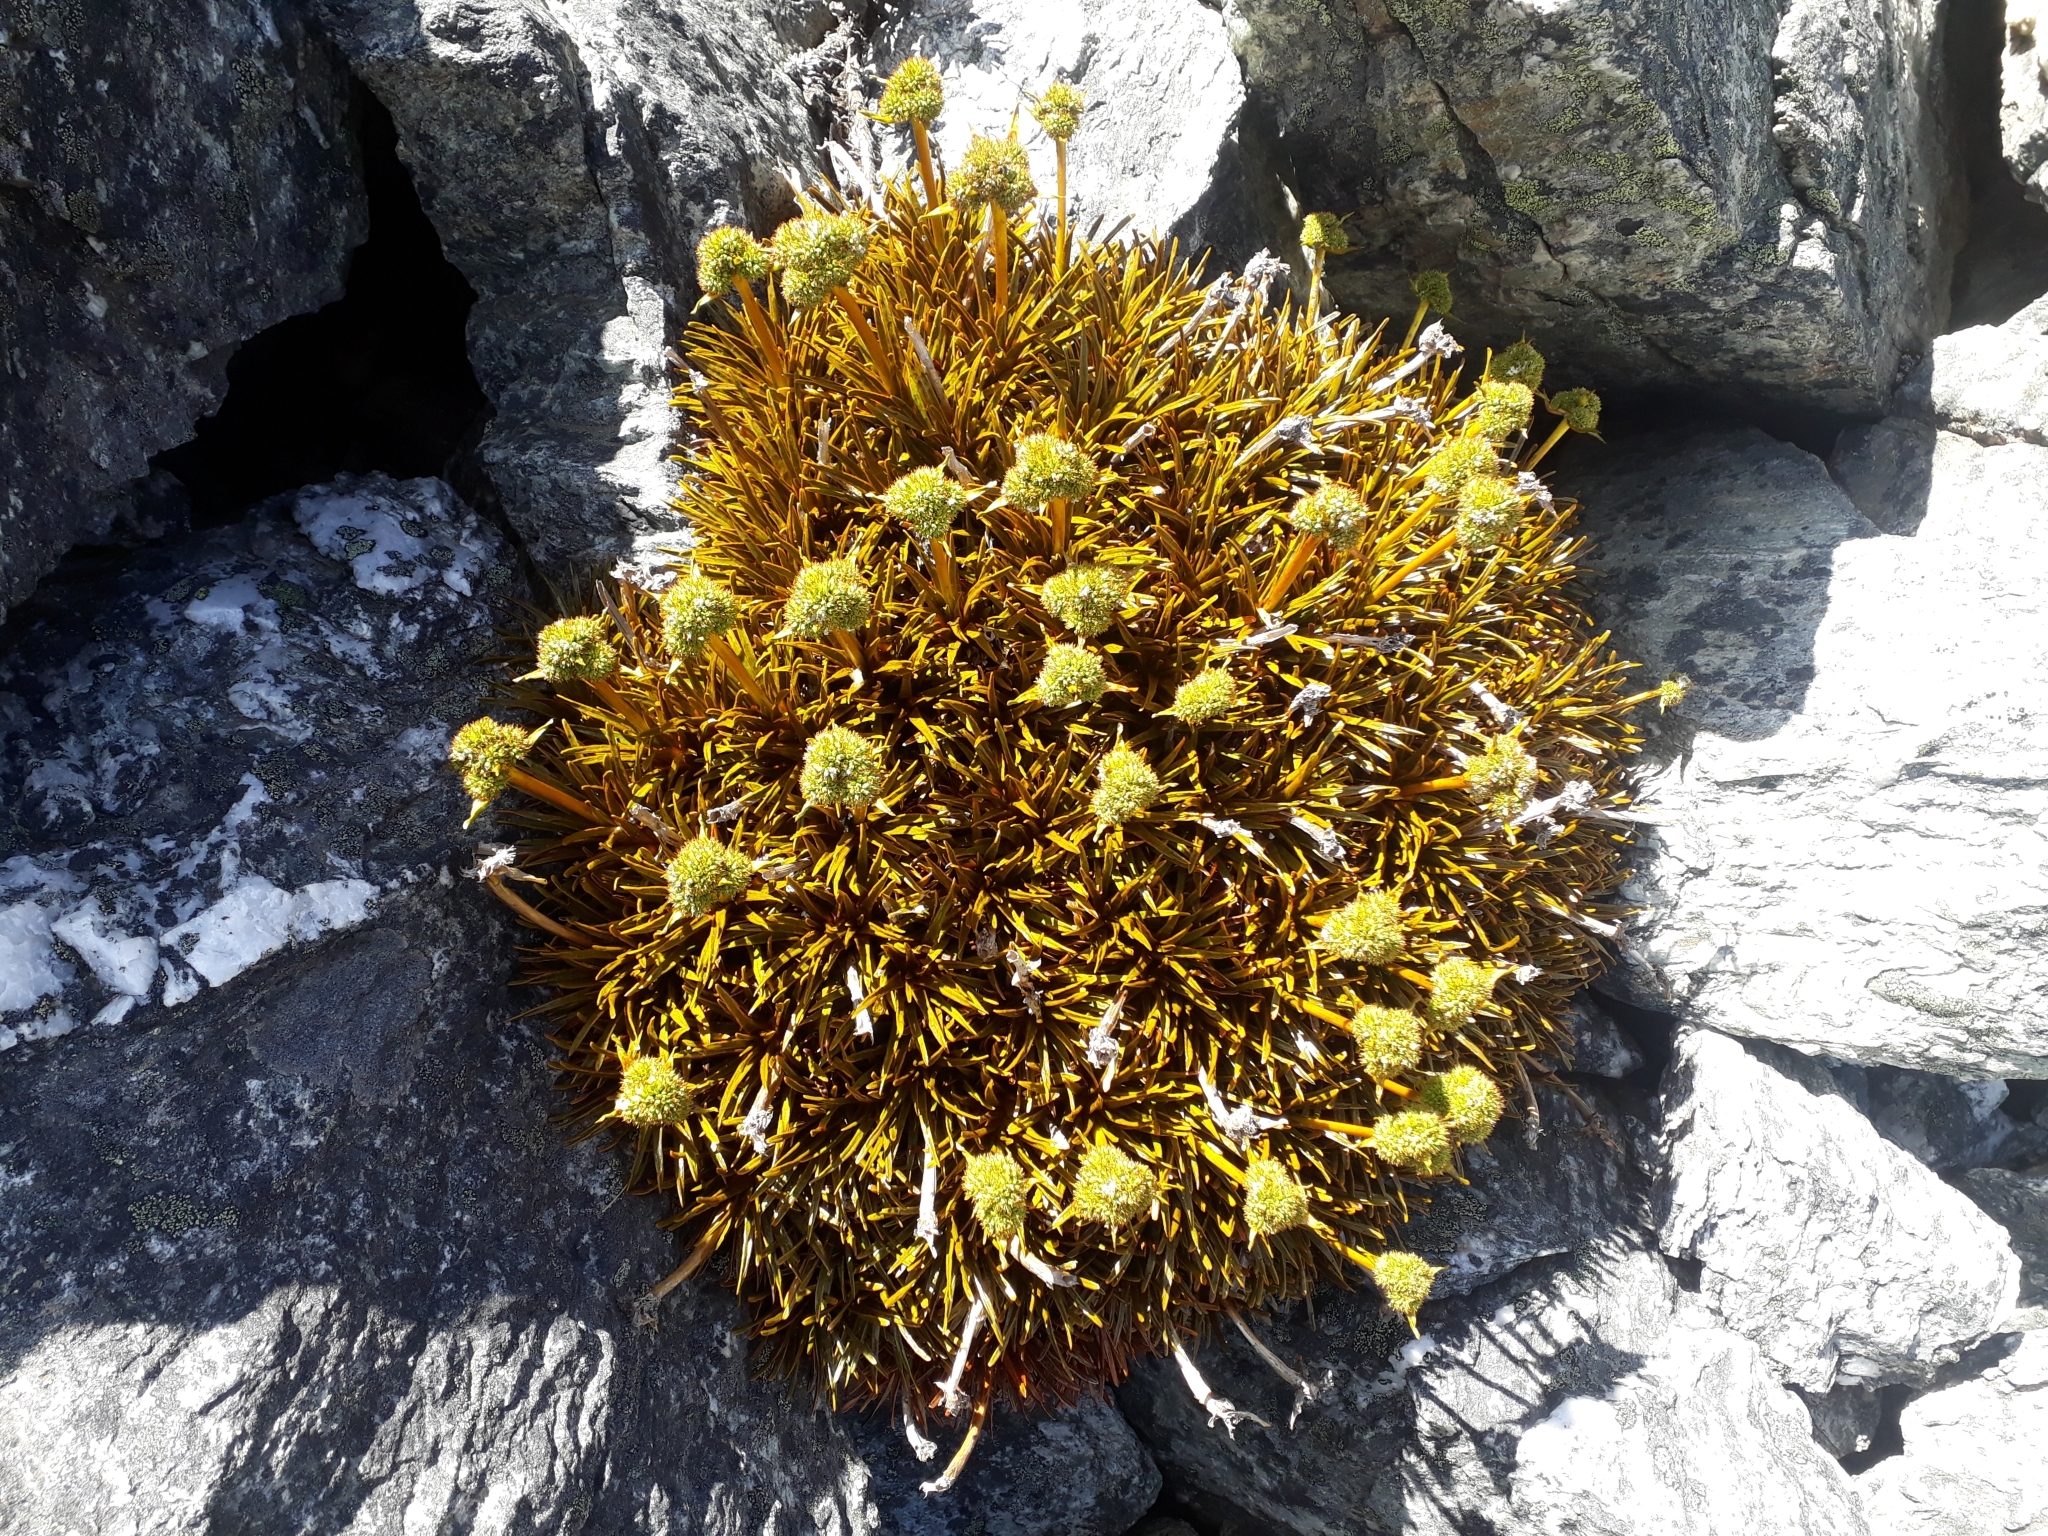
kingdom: Plantae
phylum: Tracheophyta
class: Magnoliopsida
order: Apiales
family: Apiaceae
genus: Aciphylla
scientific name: Aciphylla simplex
